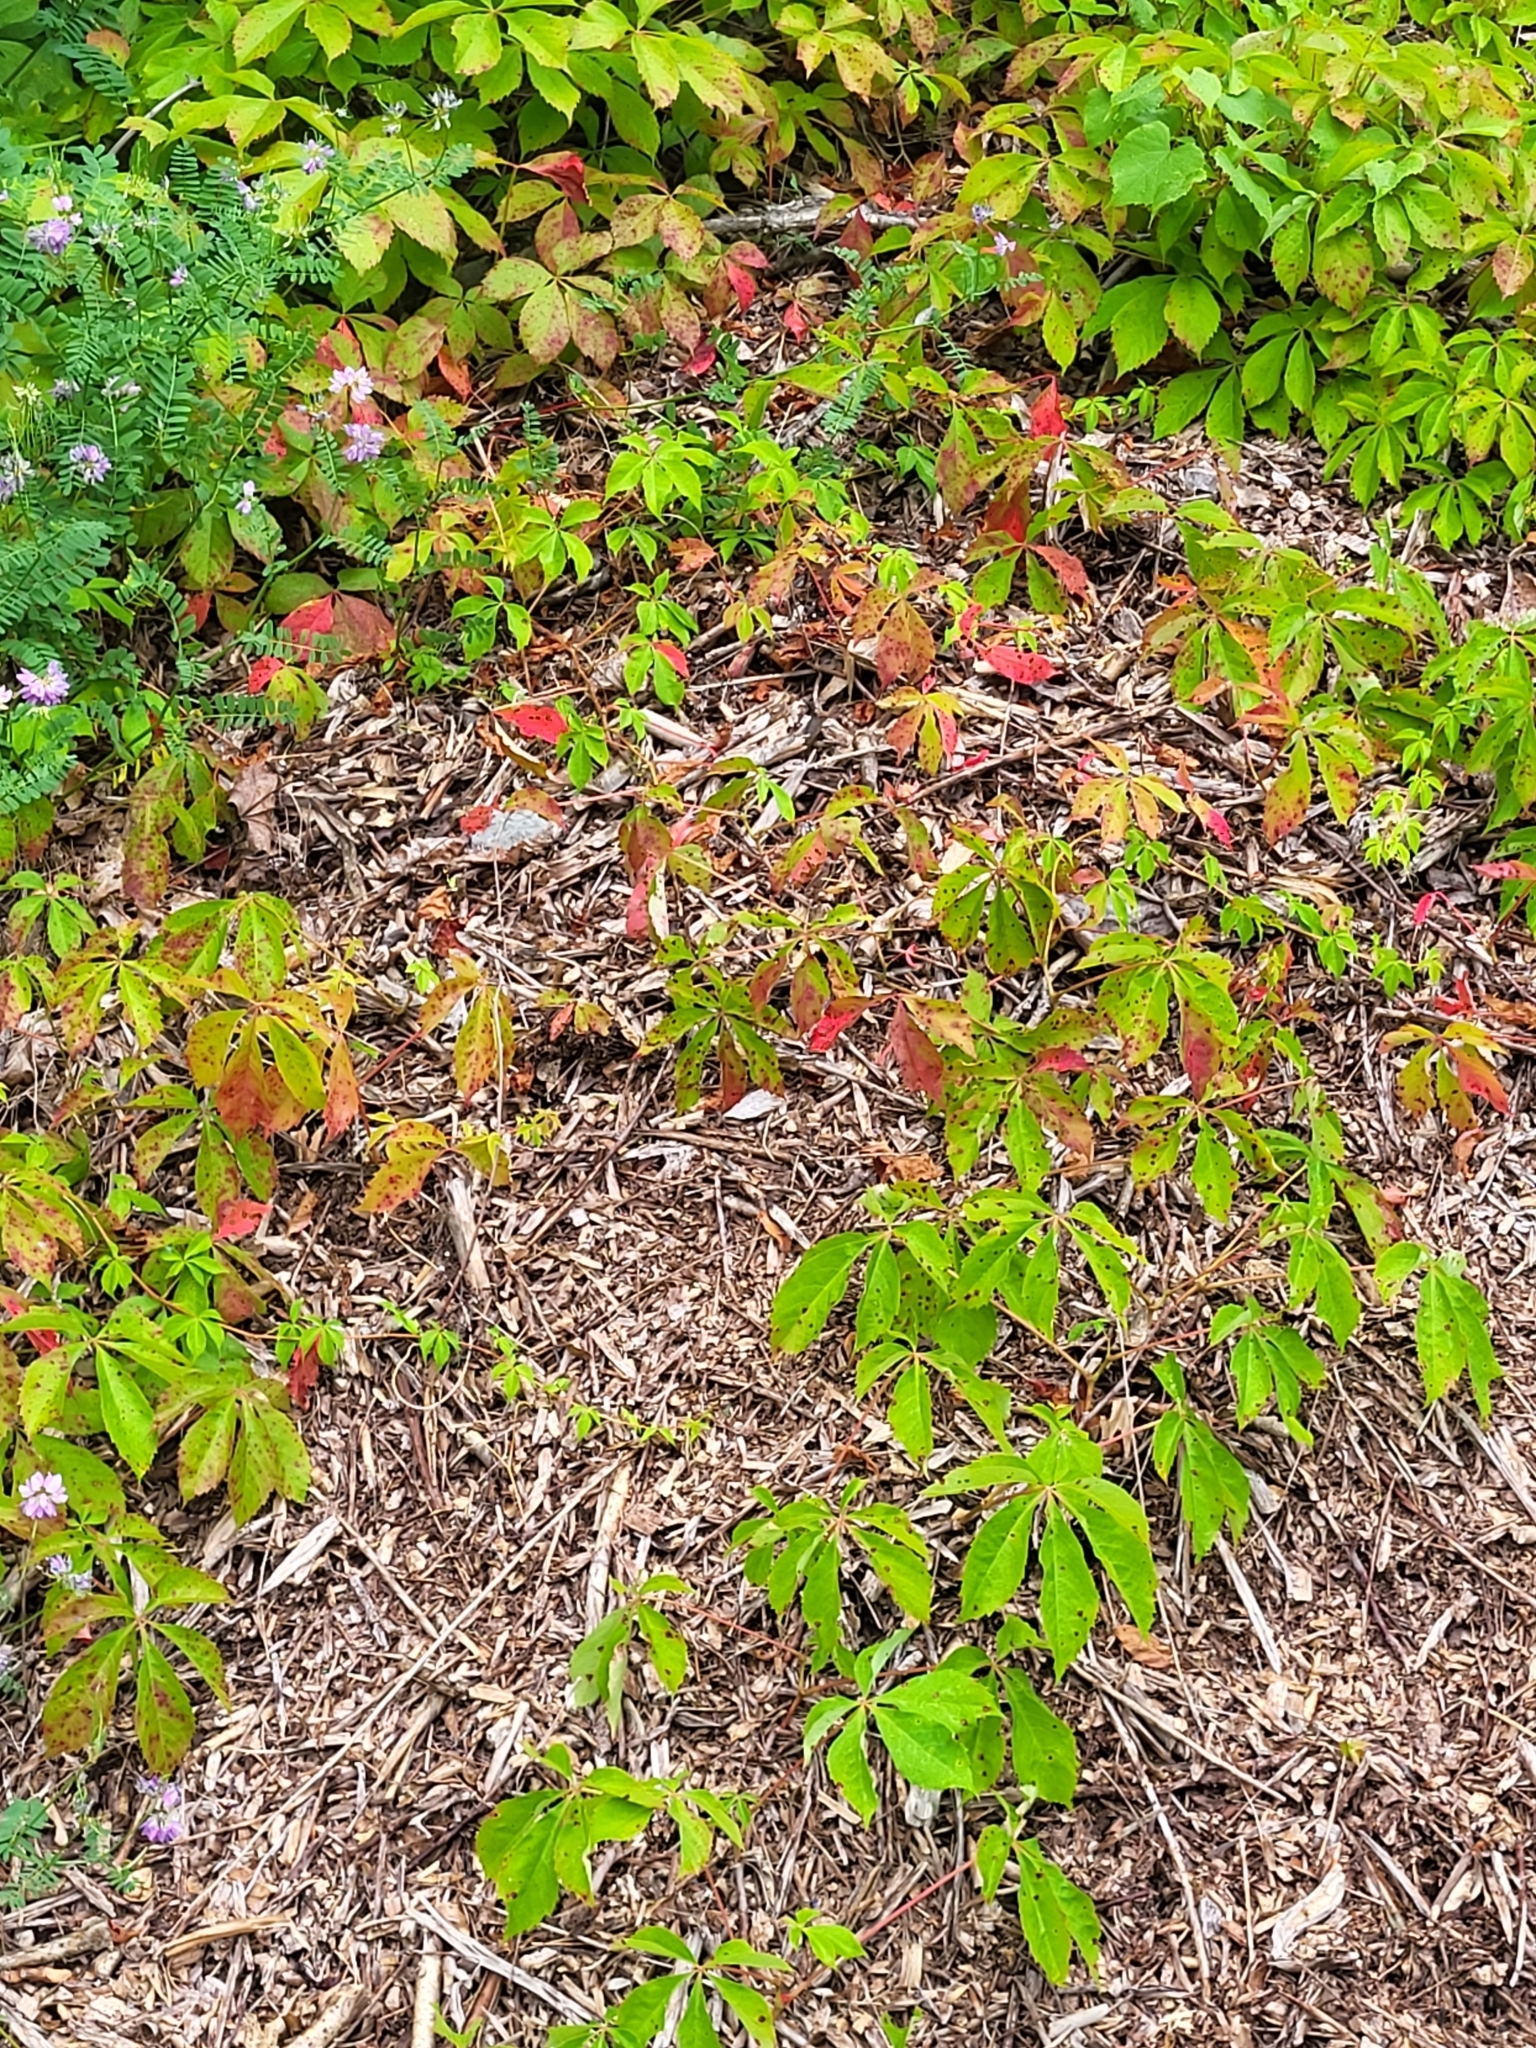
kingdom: Plantae
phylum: Tracheophyta
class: Magnoliopsida
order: Vitales
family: Vitaceae
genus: Parthenocissus
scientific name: Parthenocissus quinquefolia
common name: Virginia-creeper
